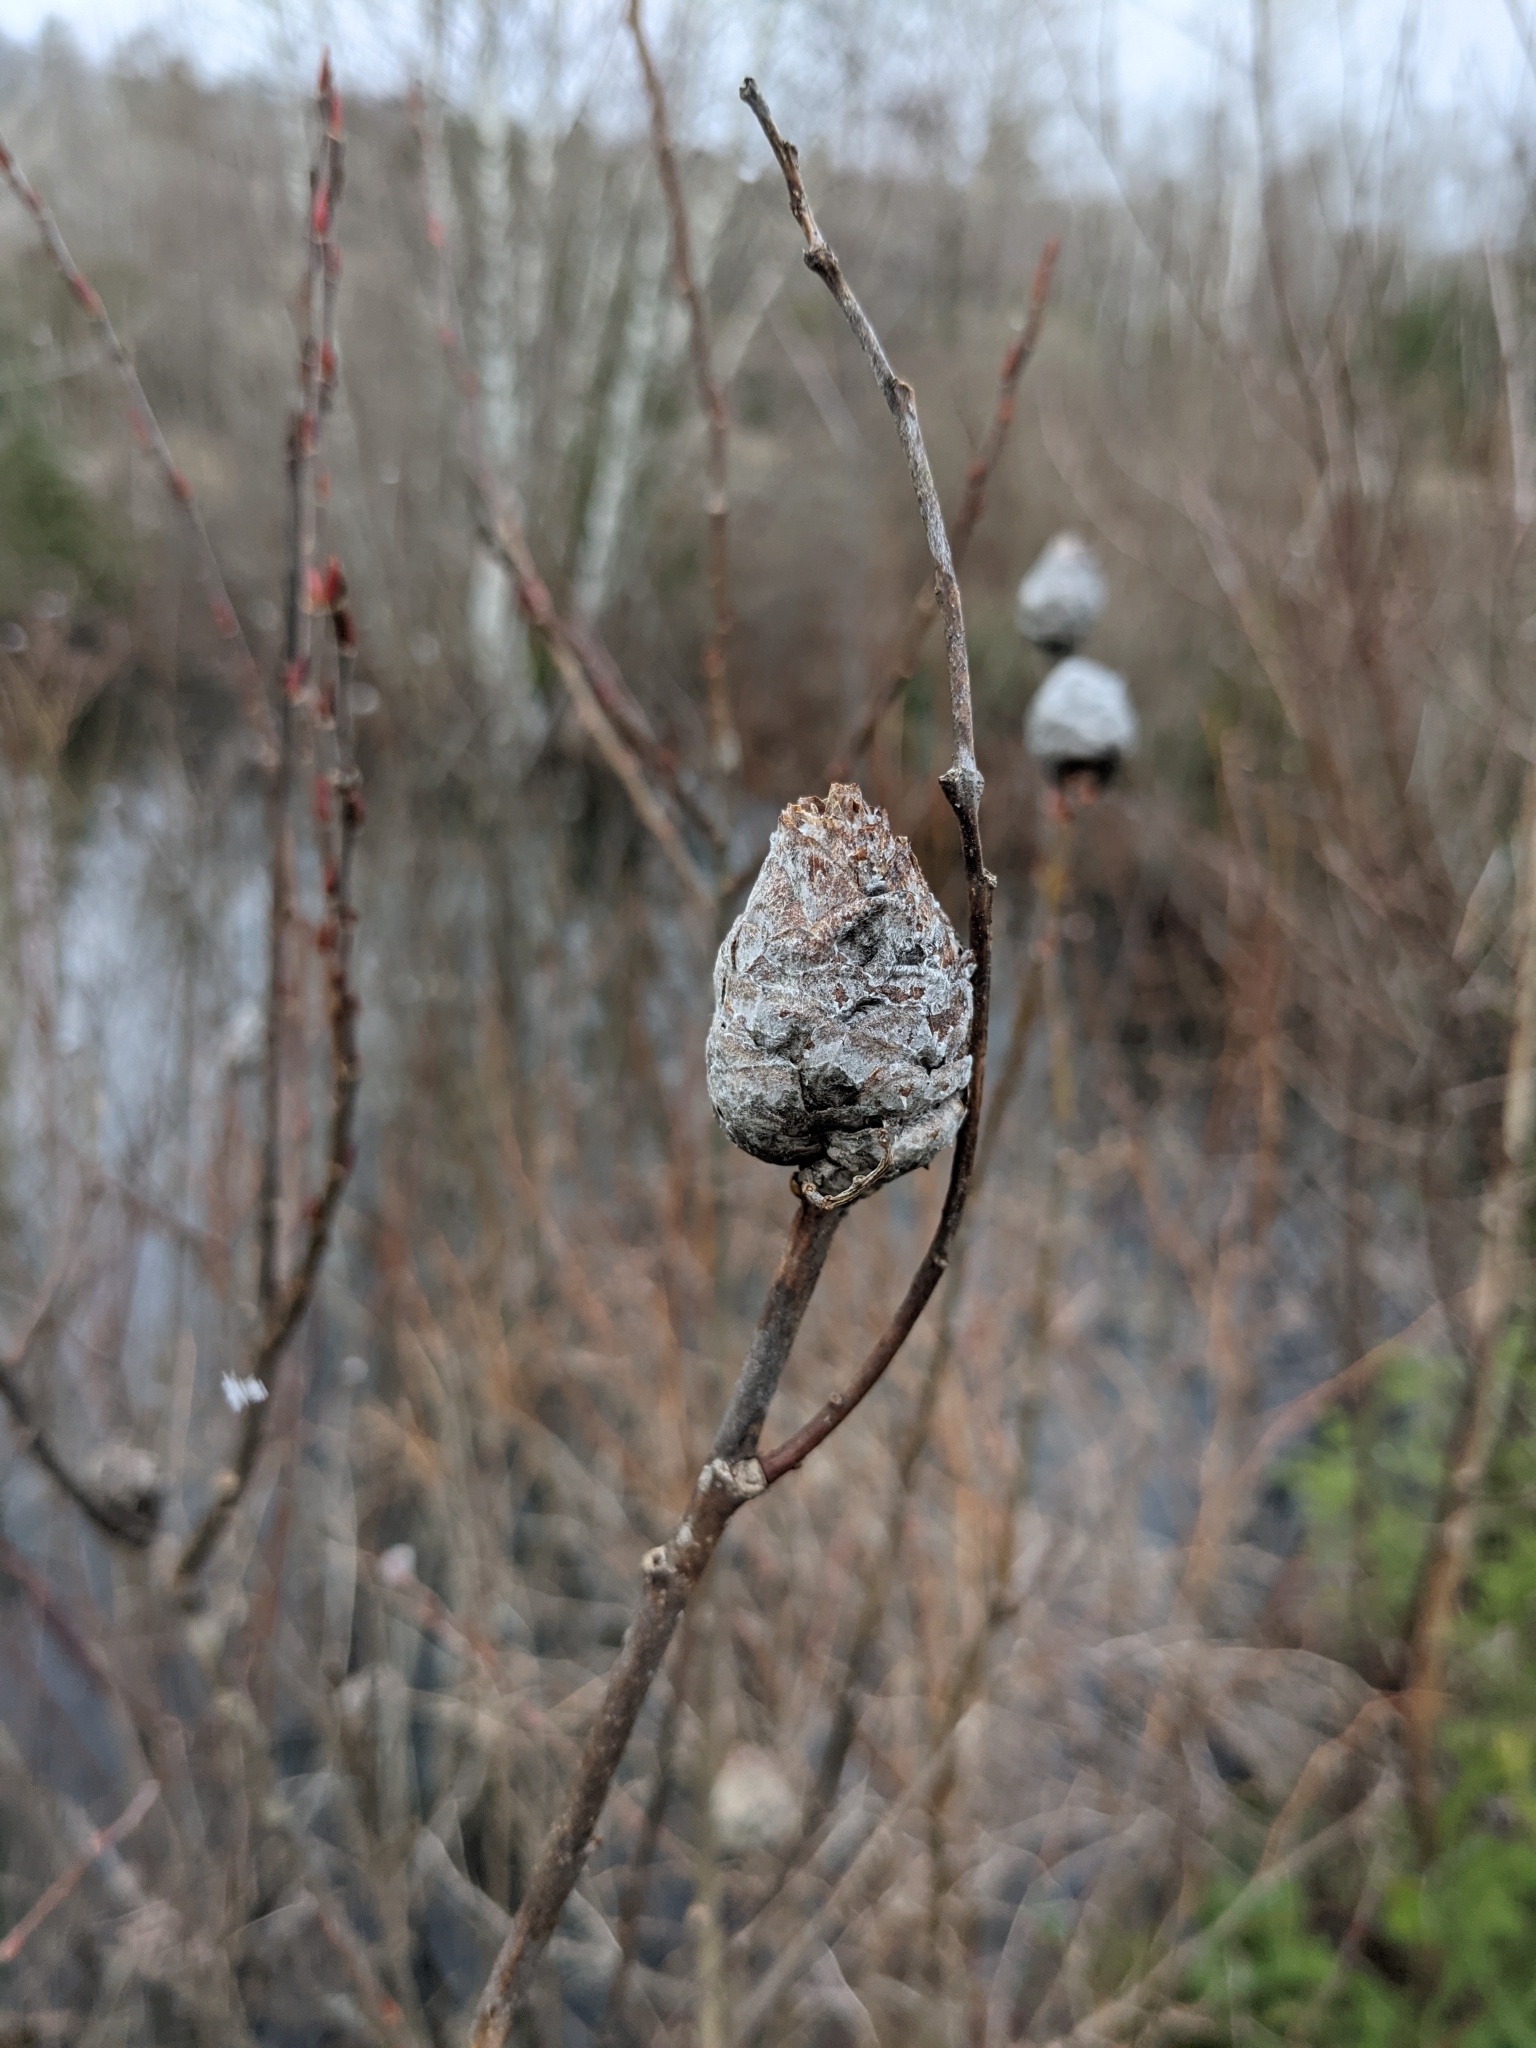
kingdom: Animalia
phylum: Arthropoda
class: Insecta
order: Diptera
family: Cecidomyiidae
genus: Rabdophaga
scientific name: Rabdophaga strobiloides
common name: Willow pinecone gall midge
